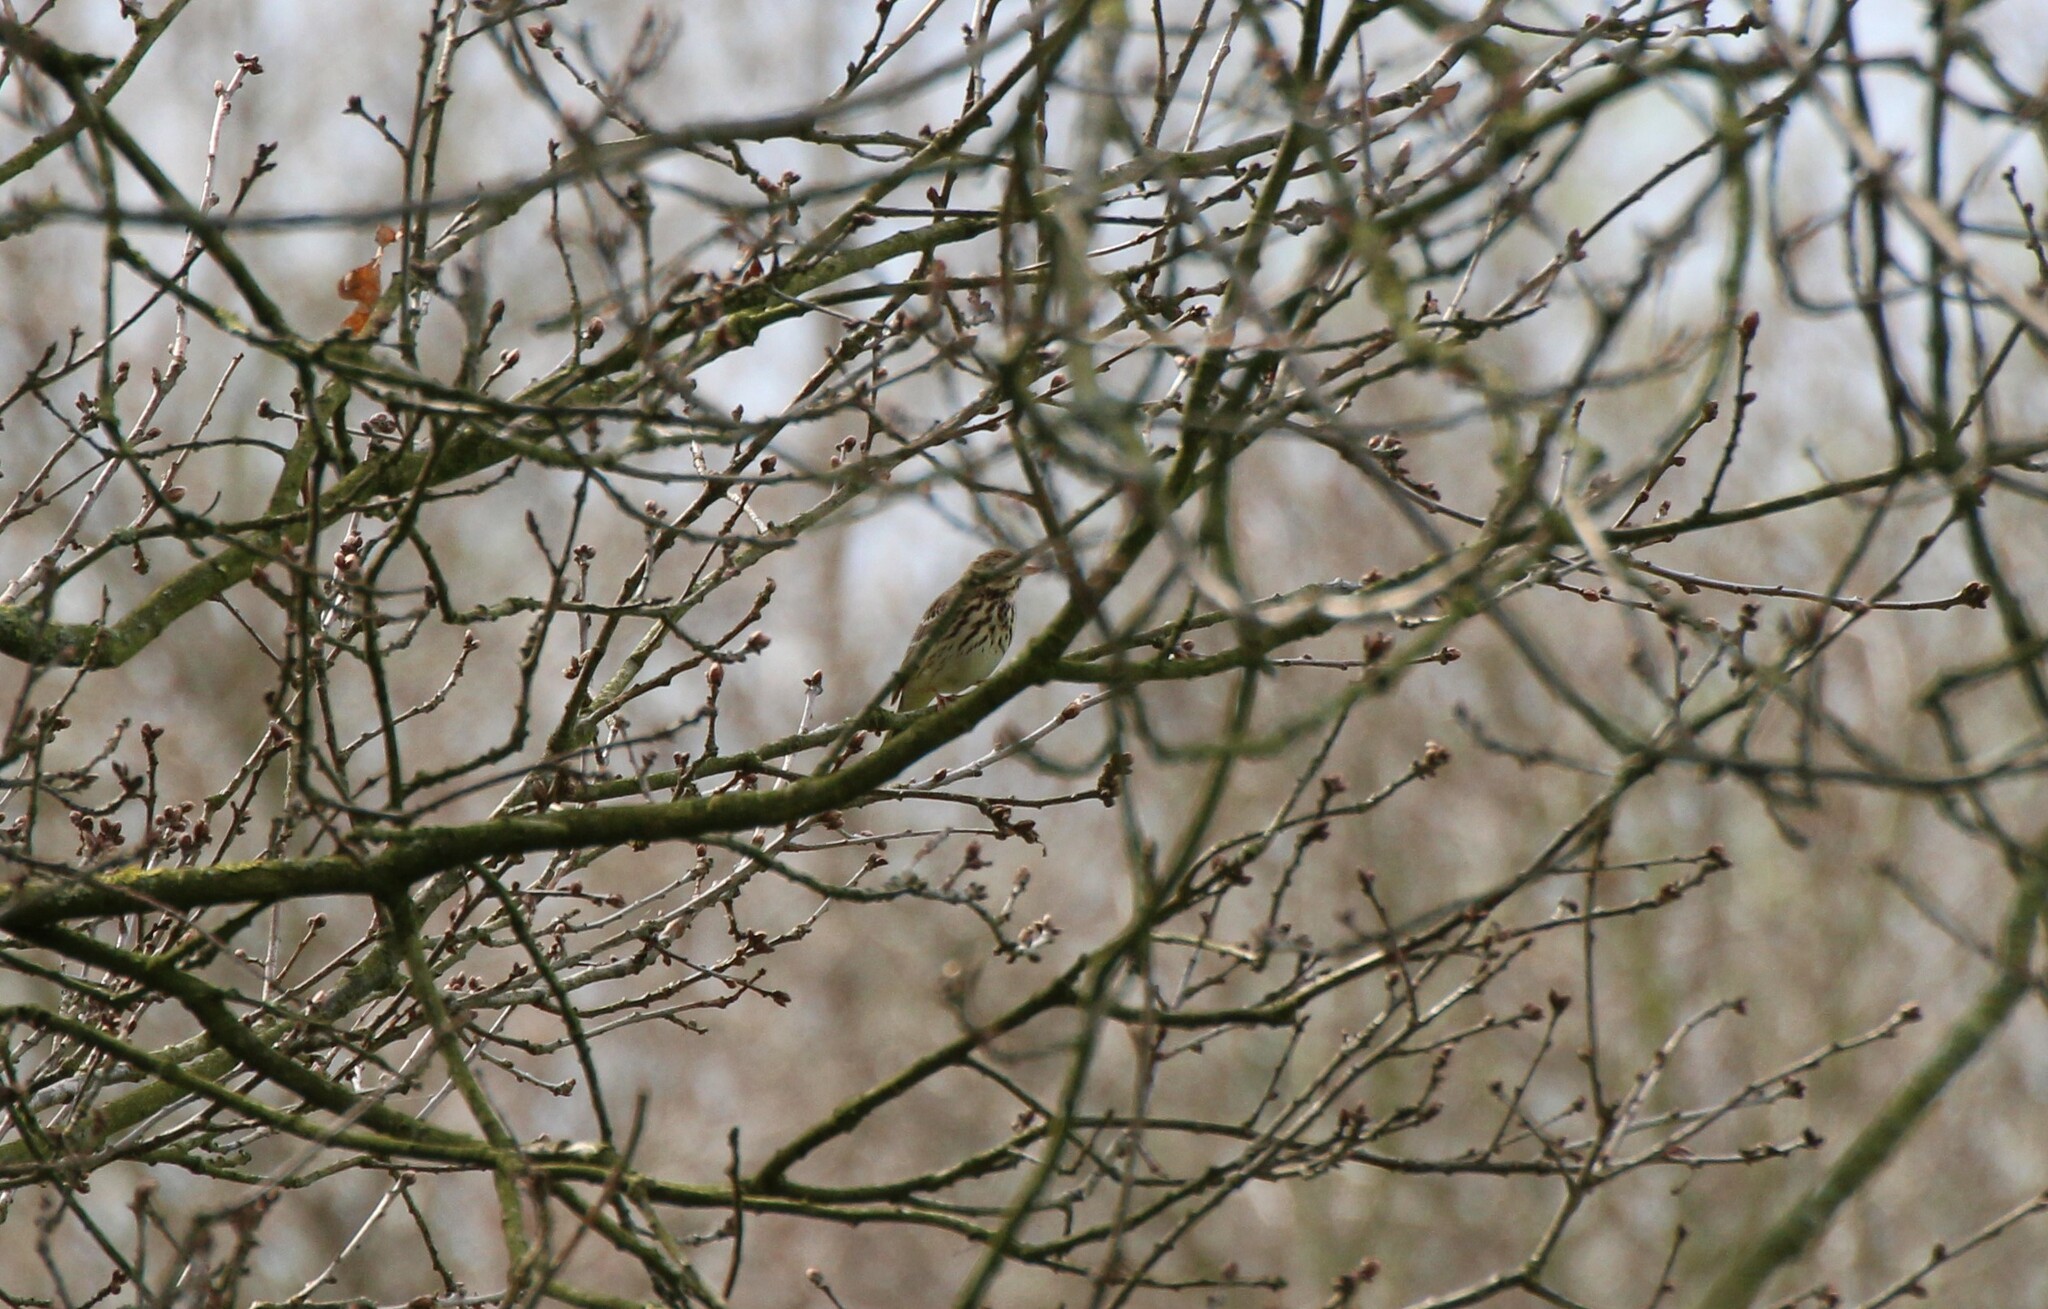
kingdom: Animalia
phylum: Chordata
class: Aves
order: Passeriformes
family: Motacillidae
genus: Anthus
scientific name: Anthus trivialis
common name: Tree pipit
